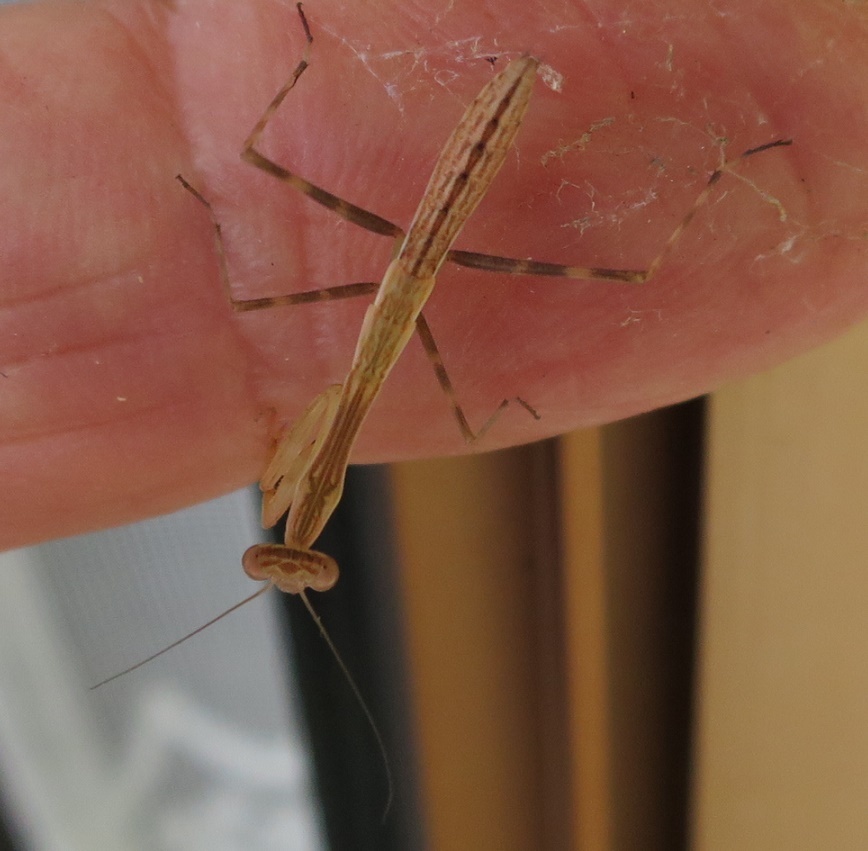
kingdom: Animalia
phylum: Arthropoda
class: Insecta
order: Mantodea
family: Miomantidae
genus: Miomantis
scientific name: Miomantis caffra
